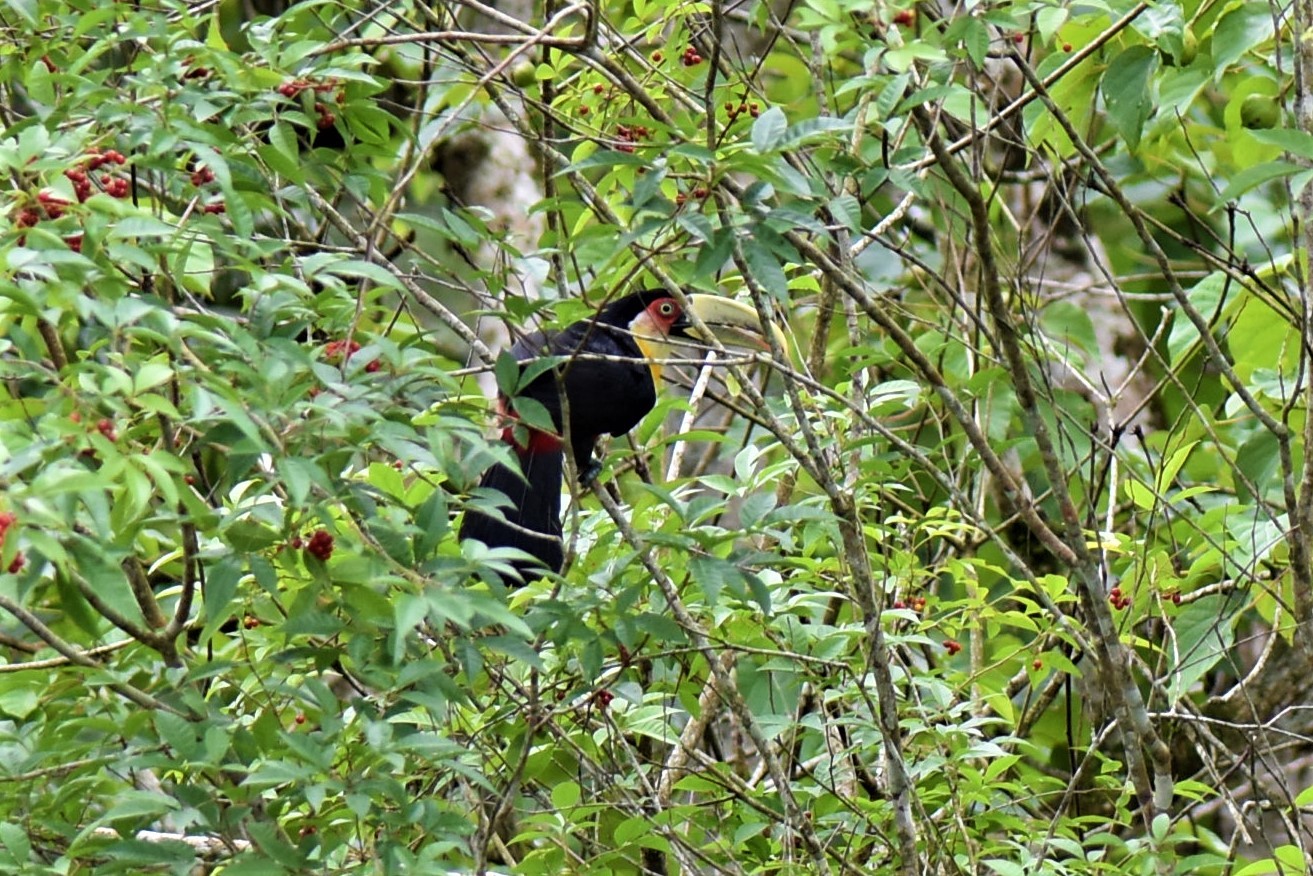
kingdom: Animalia
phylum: Chordata
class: Aves
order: Piciformes
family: Ramphastidae
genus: Ramphastos
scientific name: Ramphastos dicolorus
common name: Green-billed toucan
